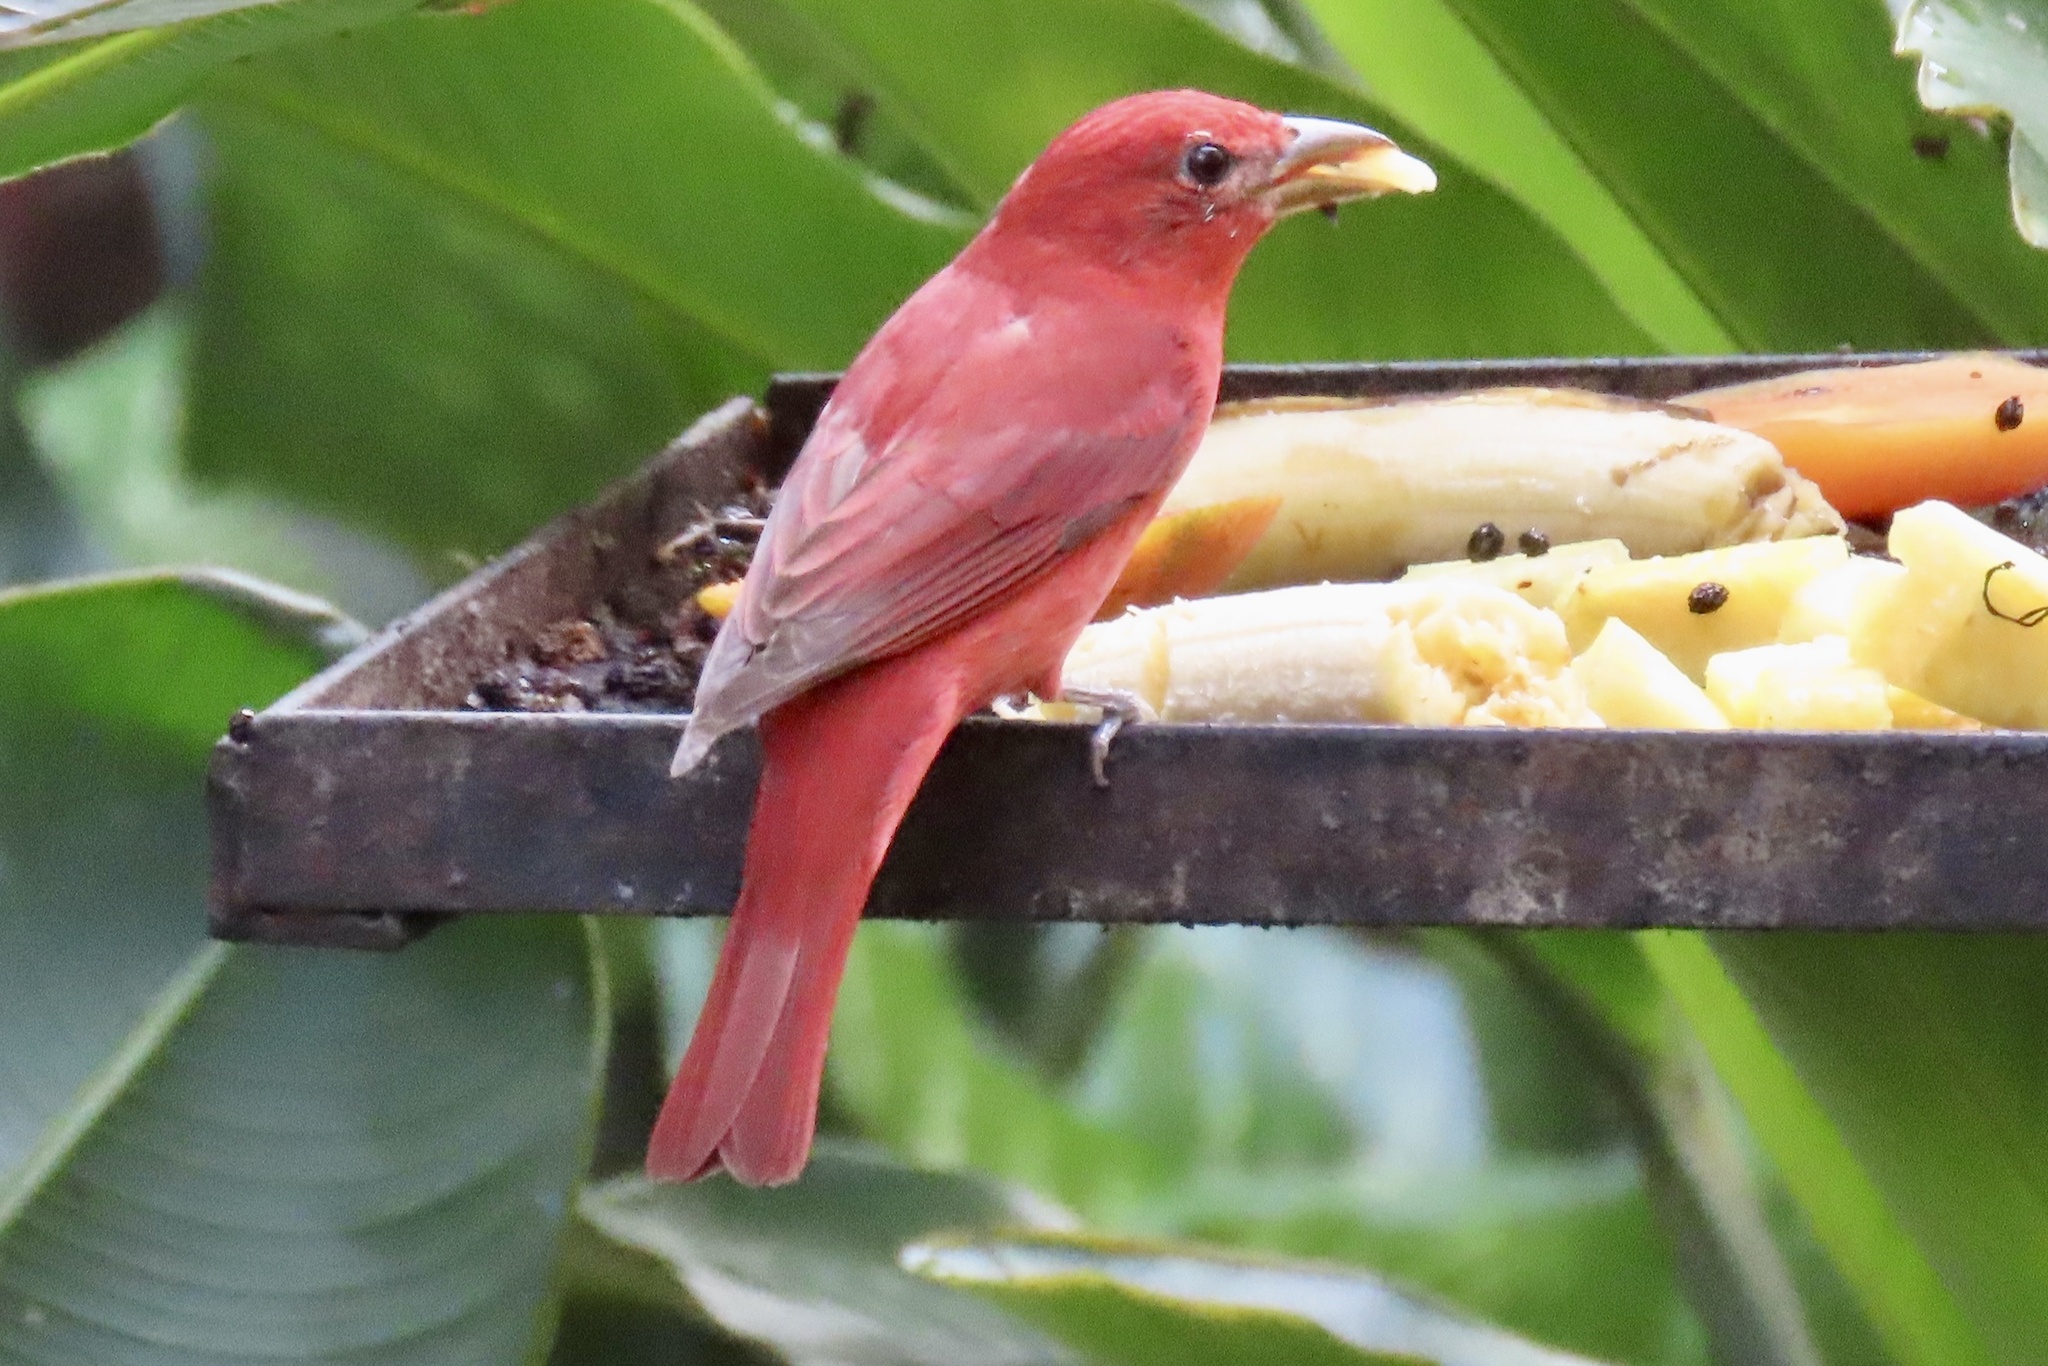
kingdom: Animalia
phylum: Chordata
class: Aves
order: Passeriformes
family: Cardinalidae
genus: Piranga
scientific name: Piranga rubra
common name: Summer tanager
